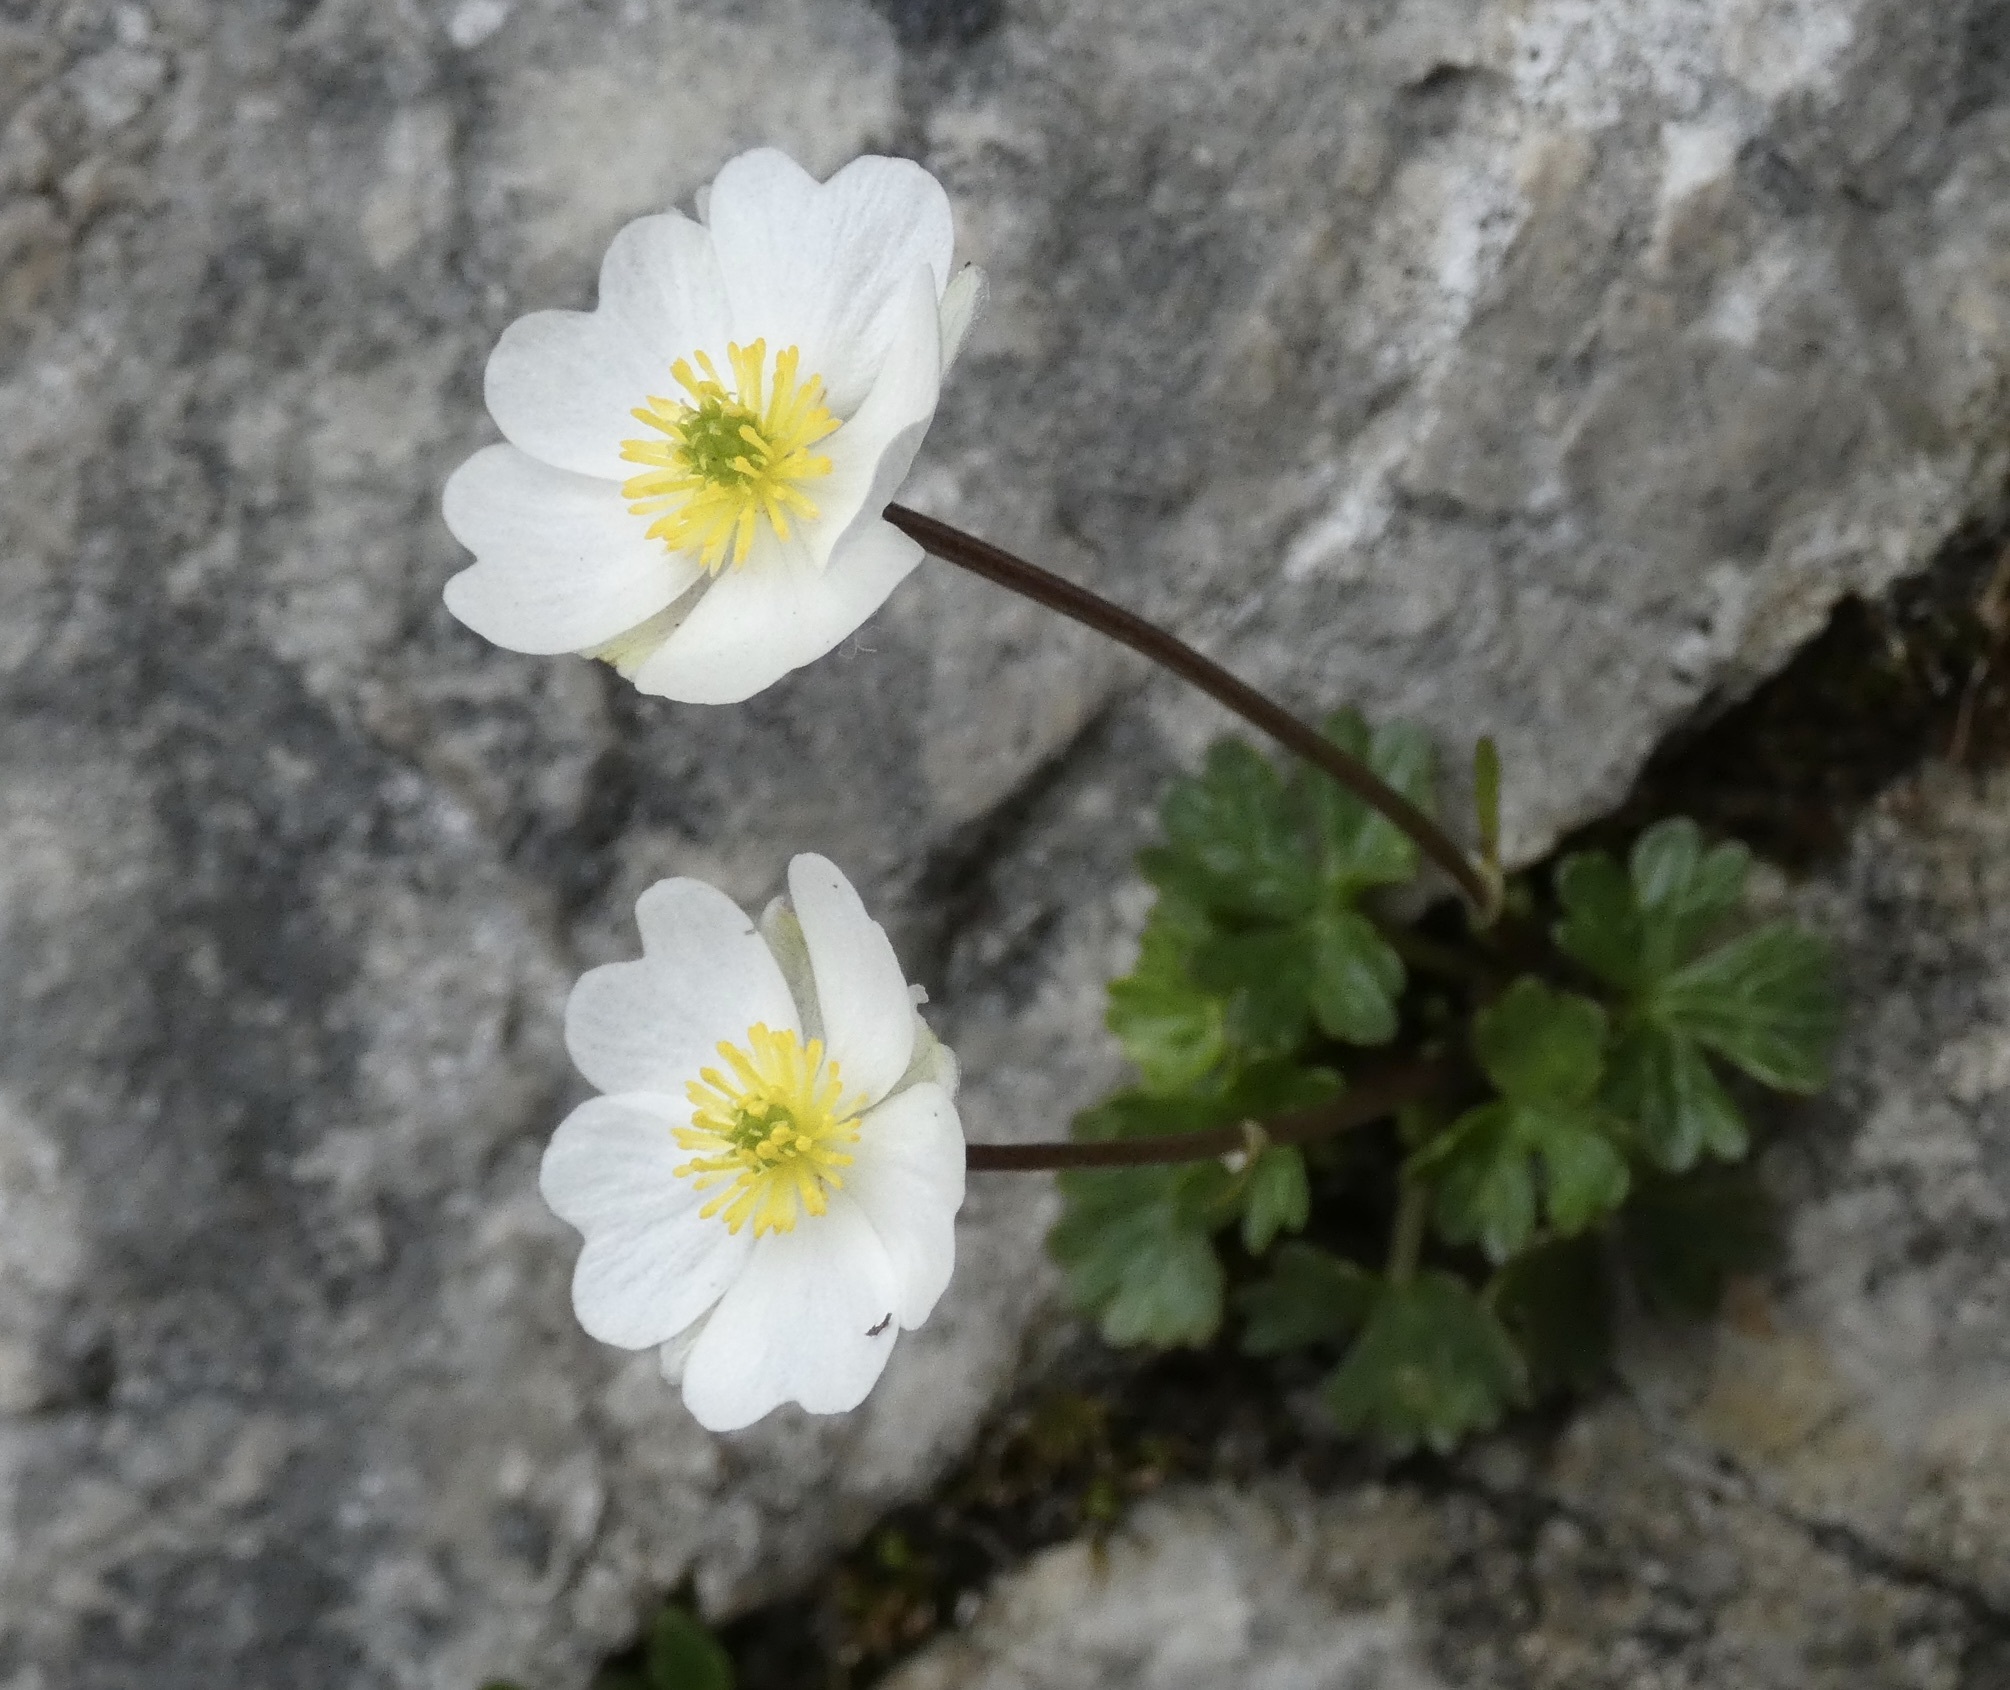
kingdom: Plantae
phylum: Tracheophyta
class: Magnoliopsida
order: Ranunculales
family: Ranunculaceae
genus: Ranunculus
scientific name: Ranunculus alpestris
